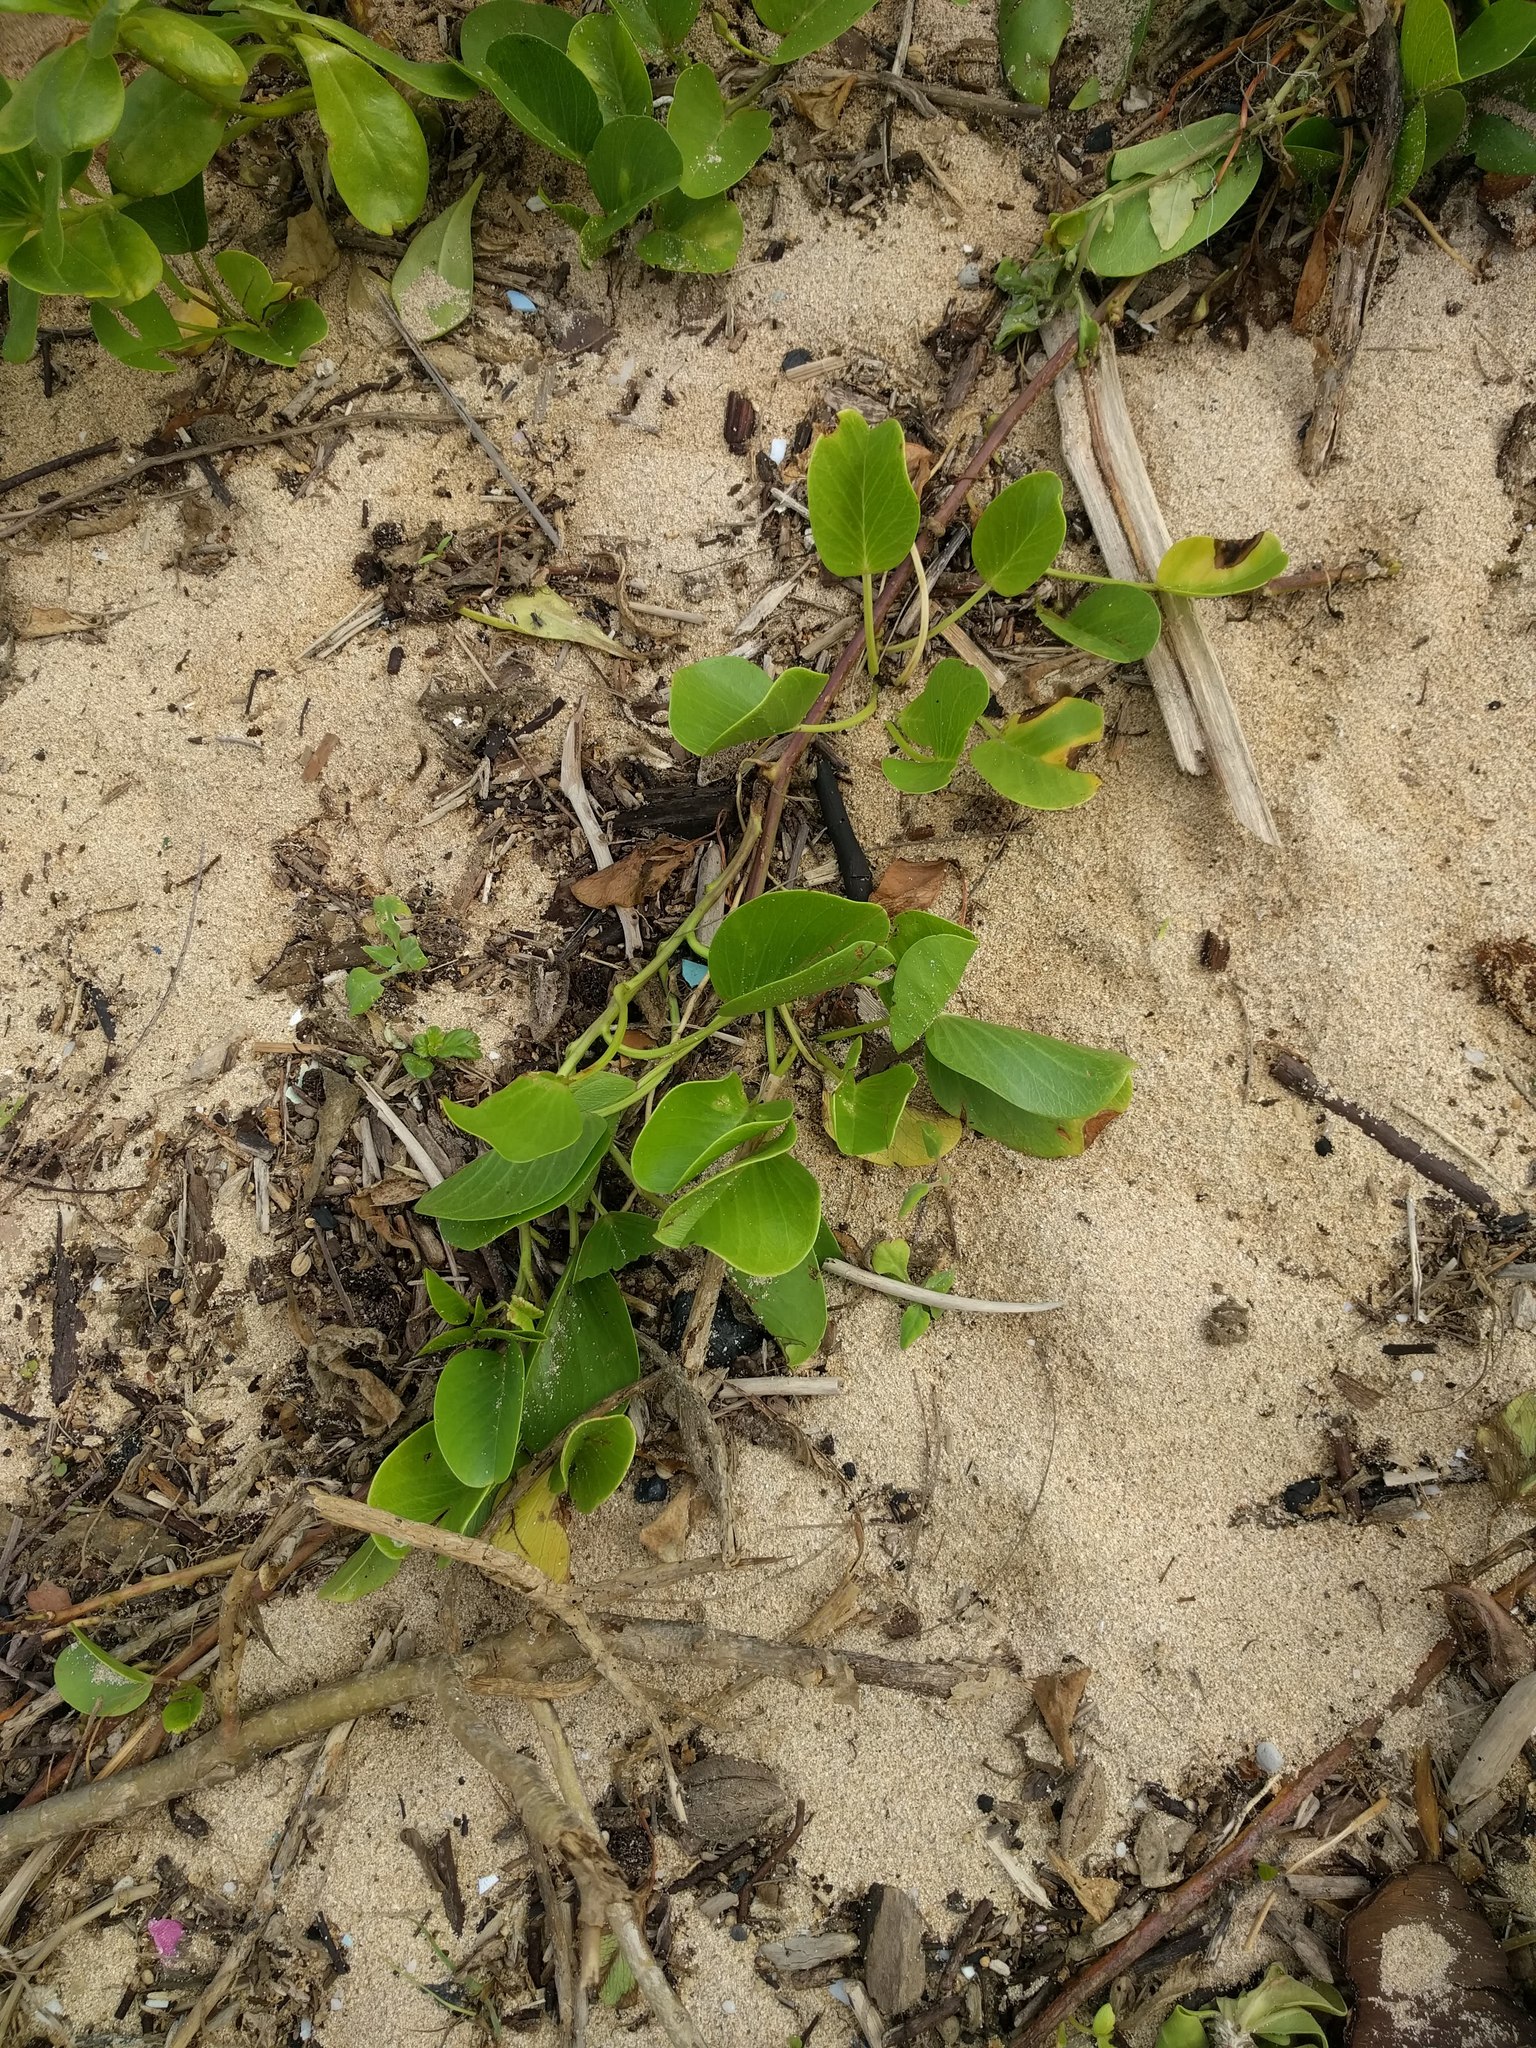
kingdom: Plantae
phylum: Tracheophyta
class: Magnoliopsida
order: Solanales
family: Convolvulaceae
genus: Ipomoea
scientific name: Ipomoea pes-caprae
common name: Beach morning glory
